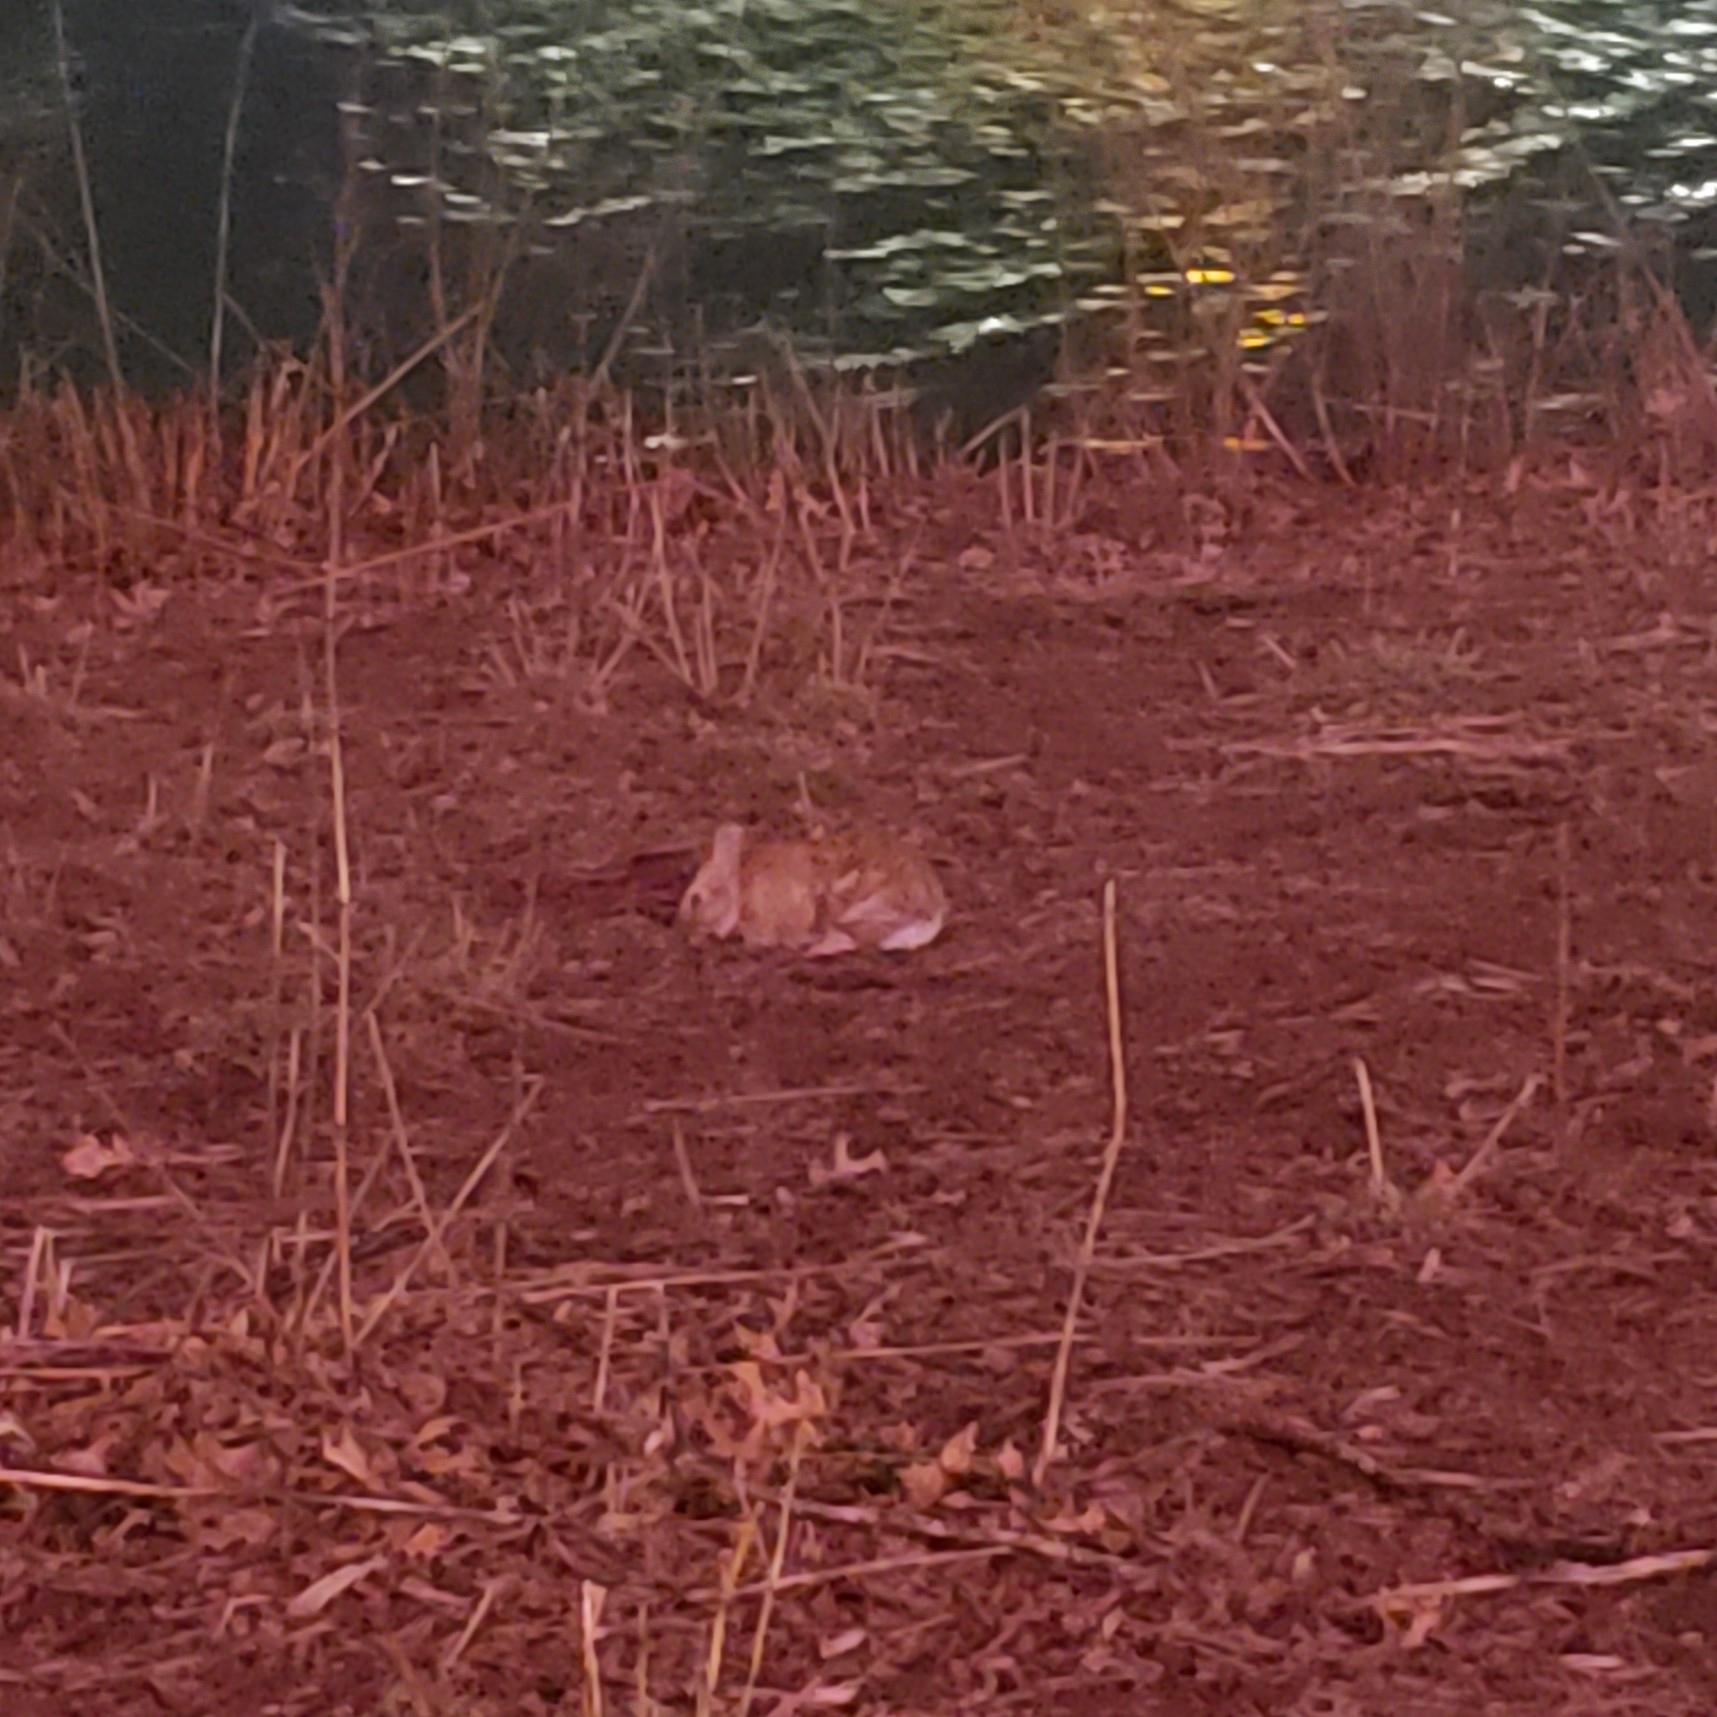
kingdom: Animalia
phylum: Chordata
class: Mammalia
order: Lagomorpha
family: Leporidae
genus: Sylvilagus
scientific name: Sylvilagus floridanus
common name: Eastern cottontail
